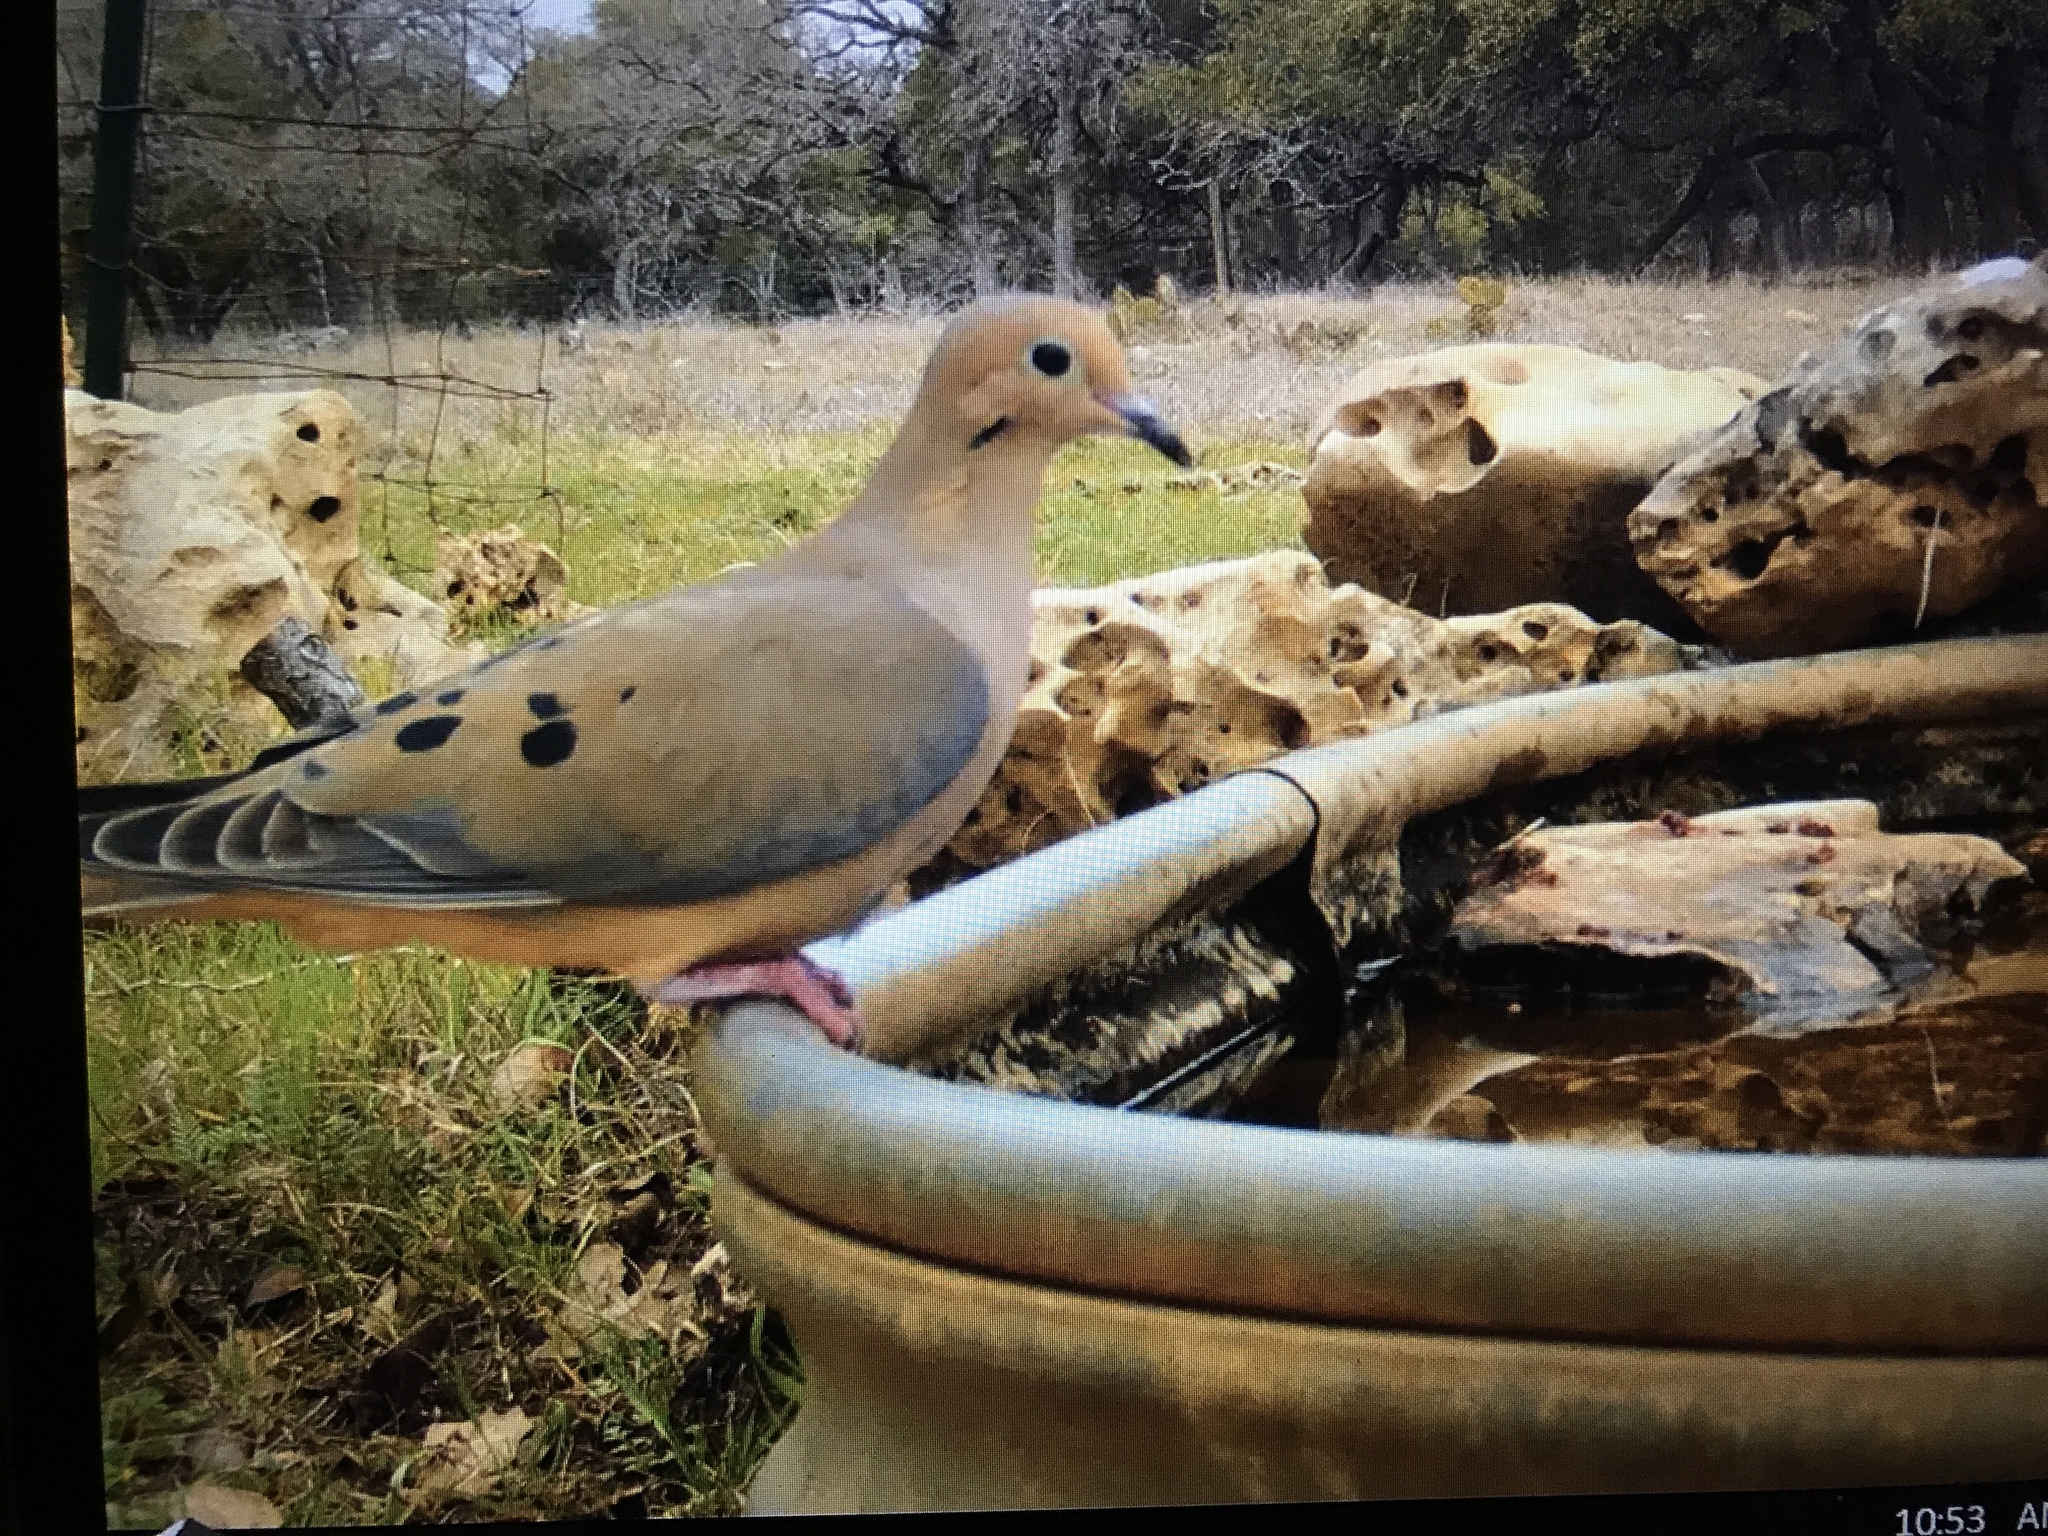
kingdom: Animalia
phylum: Chordata
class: Aves
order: Columbiformes
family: Columbidae
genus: Zenaida
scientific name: Zenaida macroura
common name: Mourning dove
